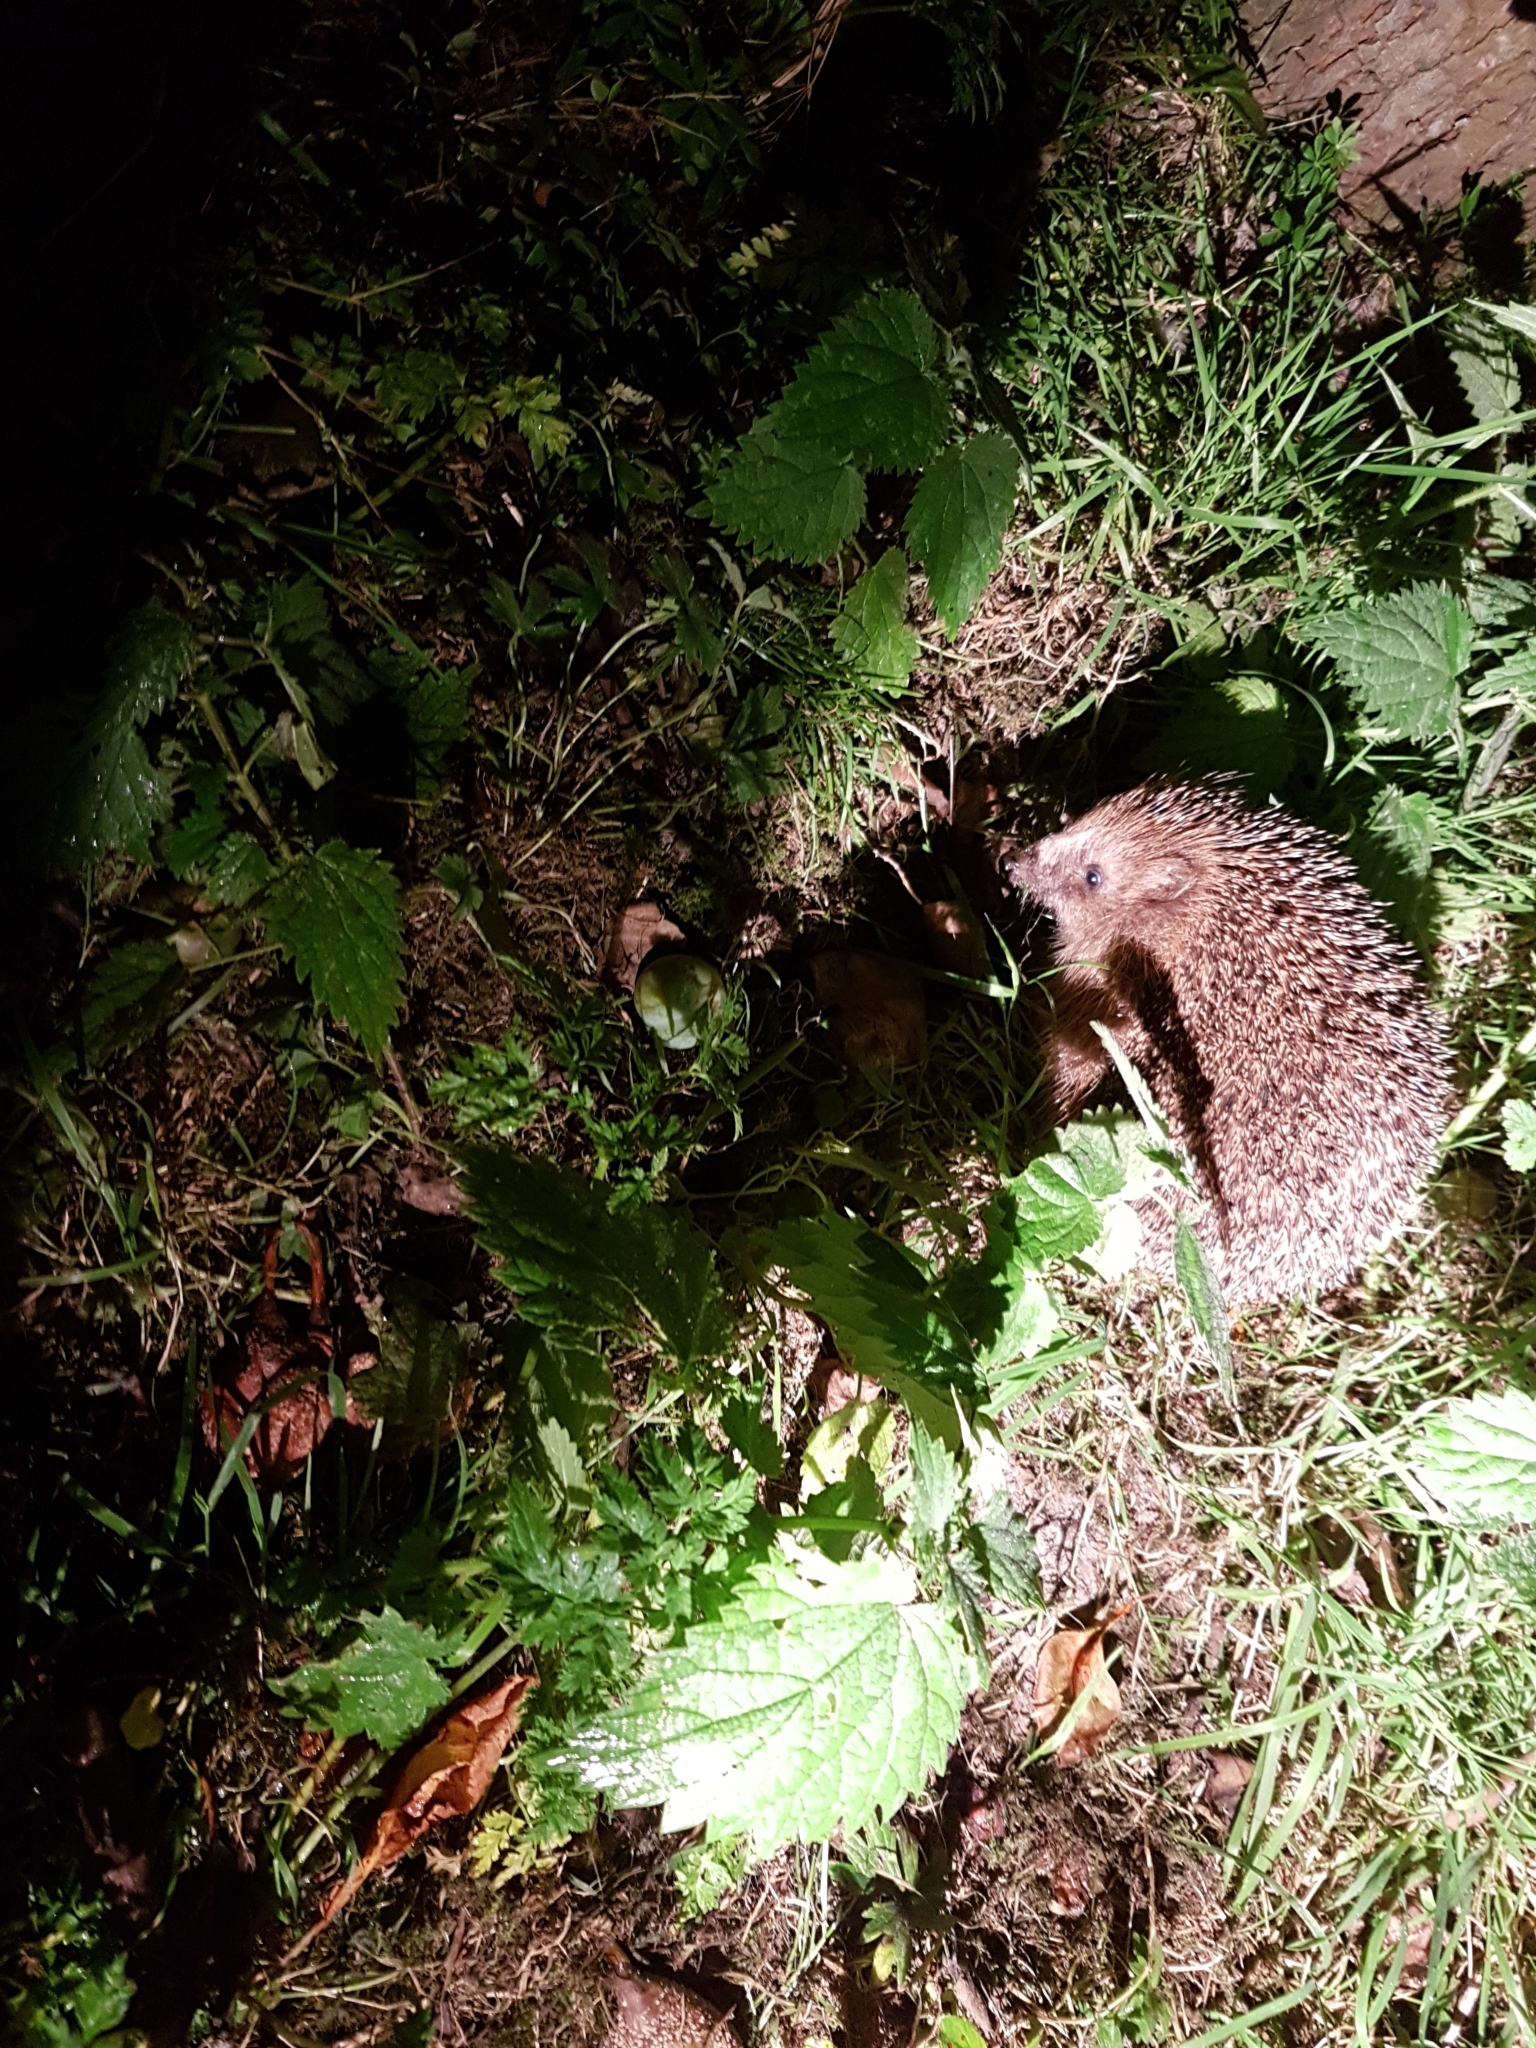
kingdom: Animalia
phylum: Chordata
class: Mammalia
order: Erinaceomorpha
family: Erinaceidae
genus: Erinaceus
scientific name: Erinaceus europaeus
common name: West european hedgehog
